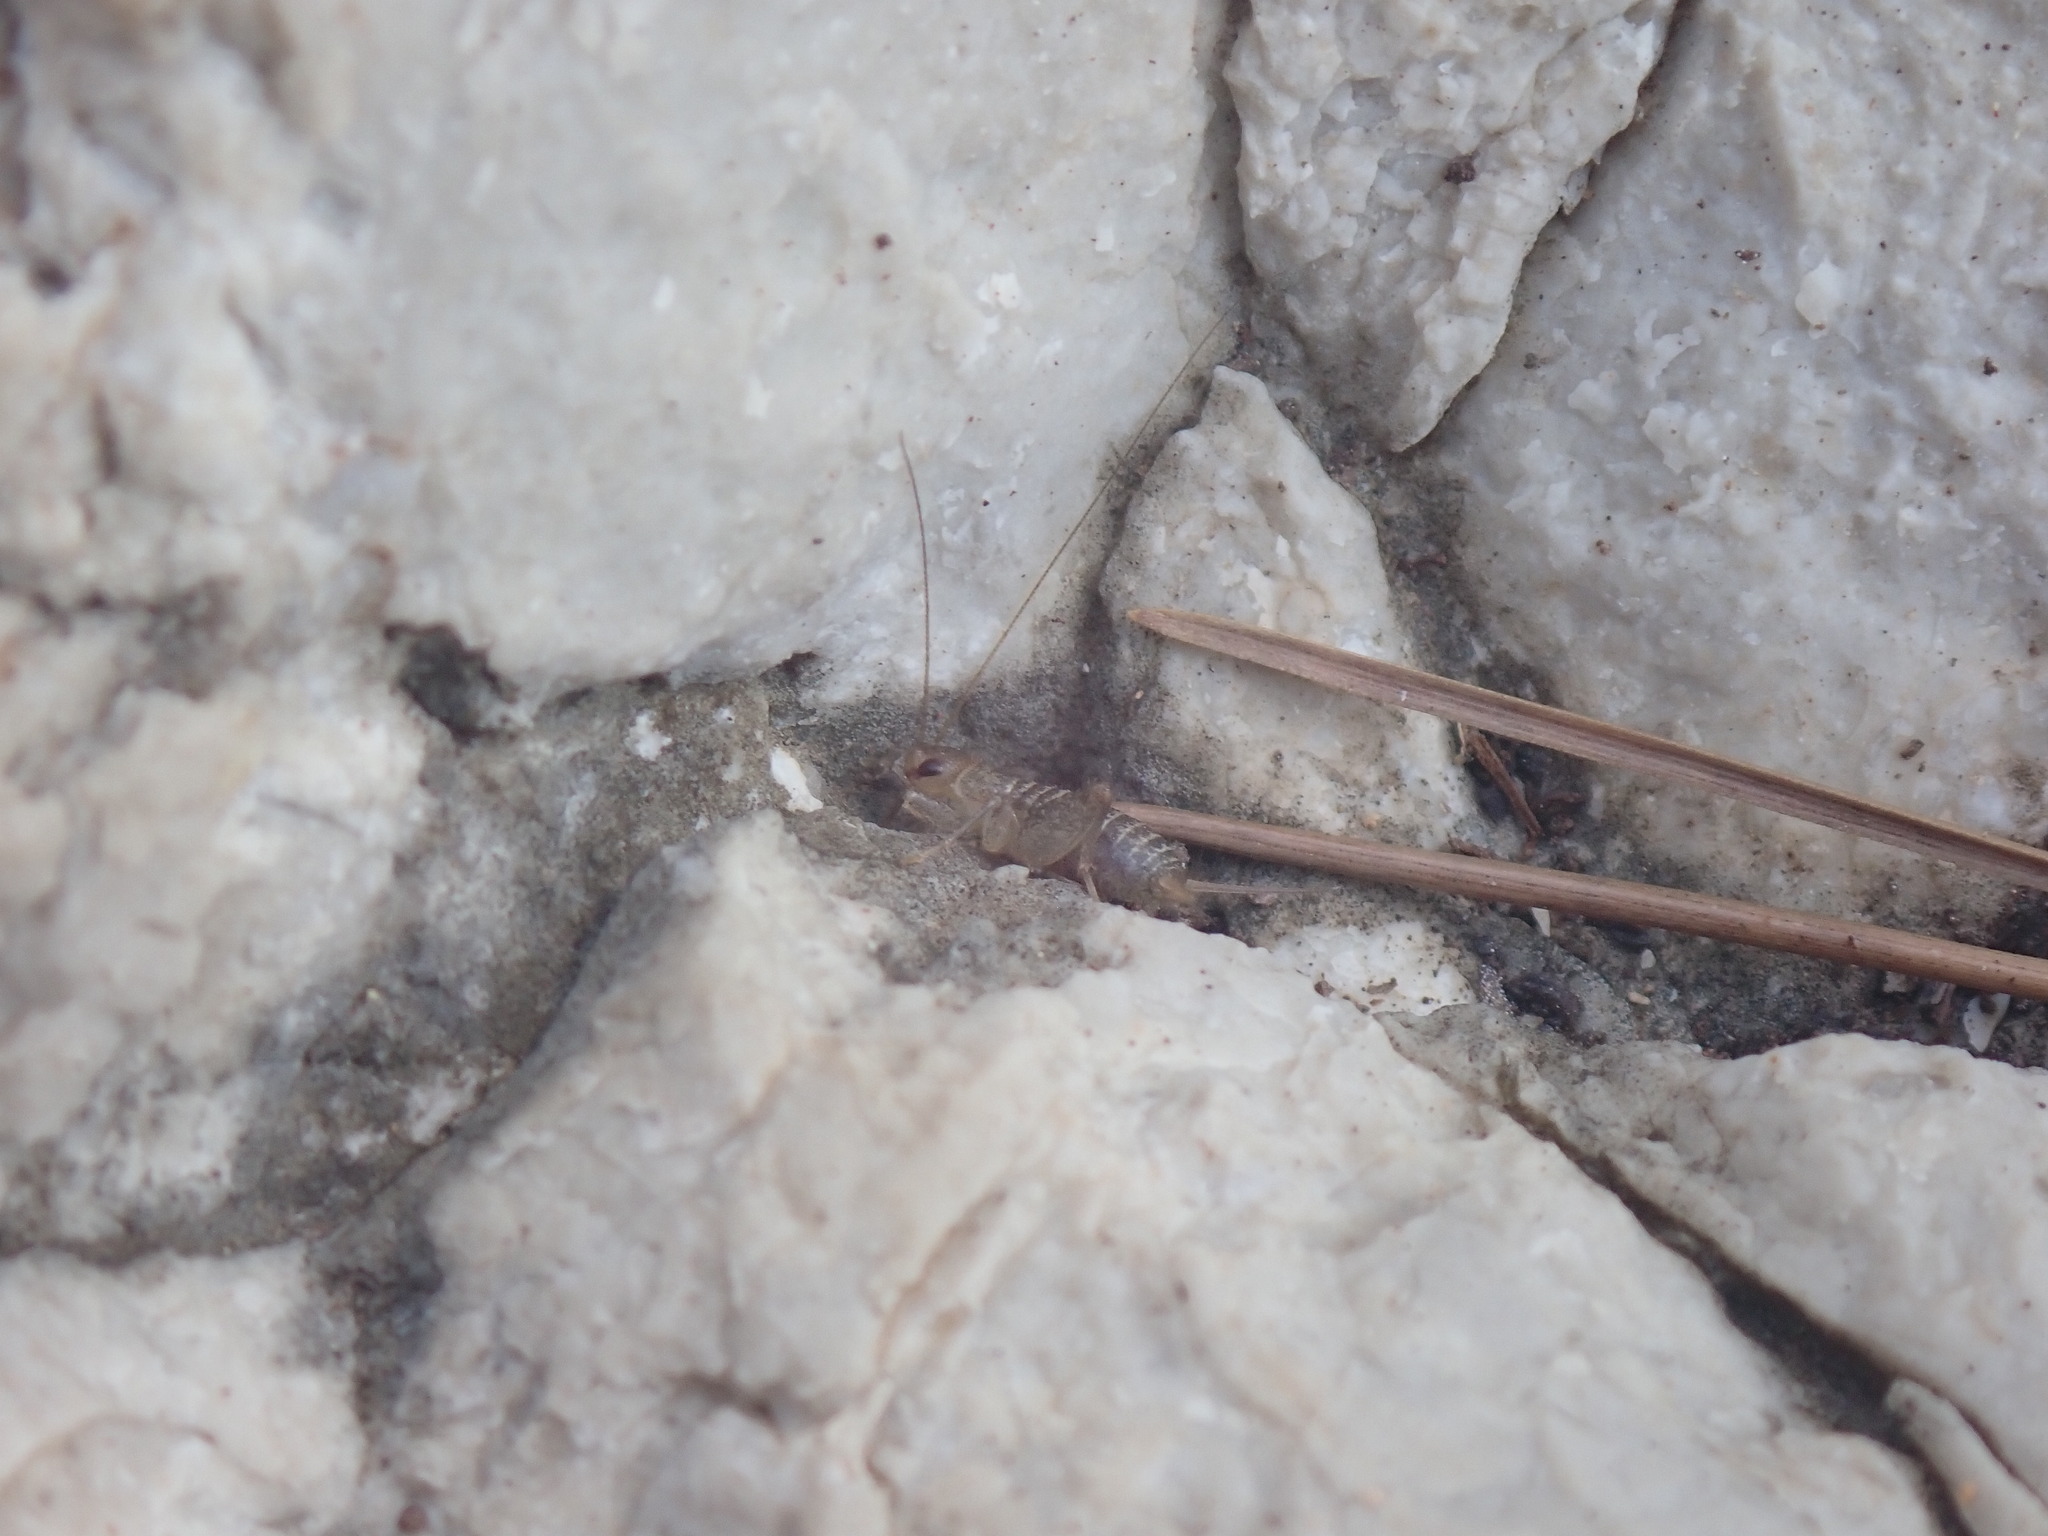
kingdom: Animalia
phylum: Arthropoda
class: Insecta
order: Orthoptera
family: Mogoplistidae
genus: Pseudomogoplistes
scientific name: Pseudomogoplistes squamiger
